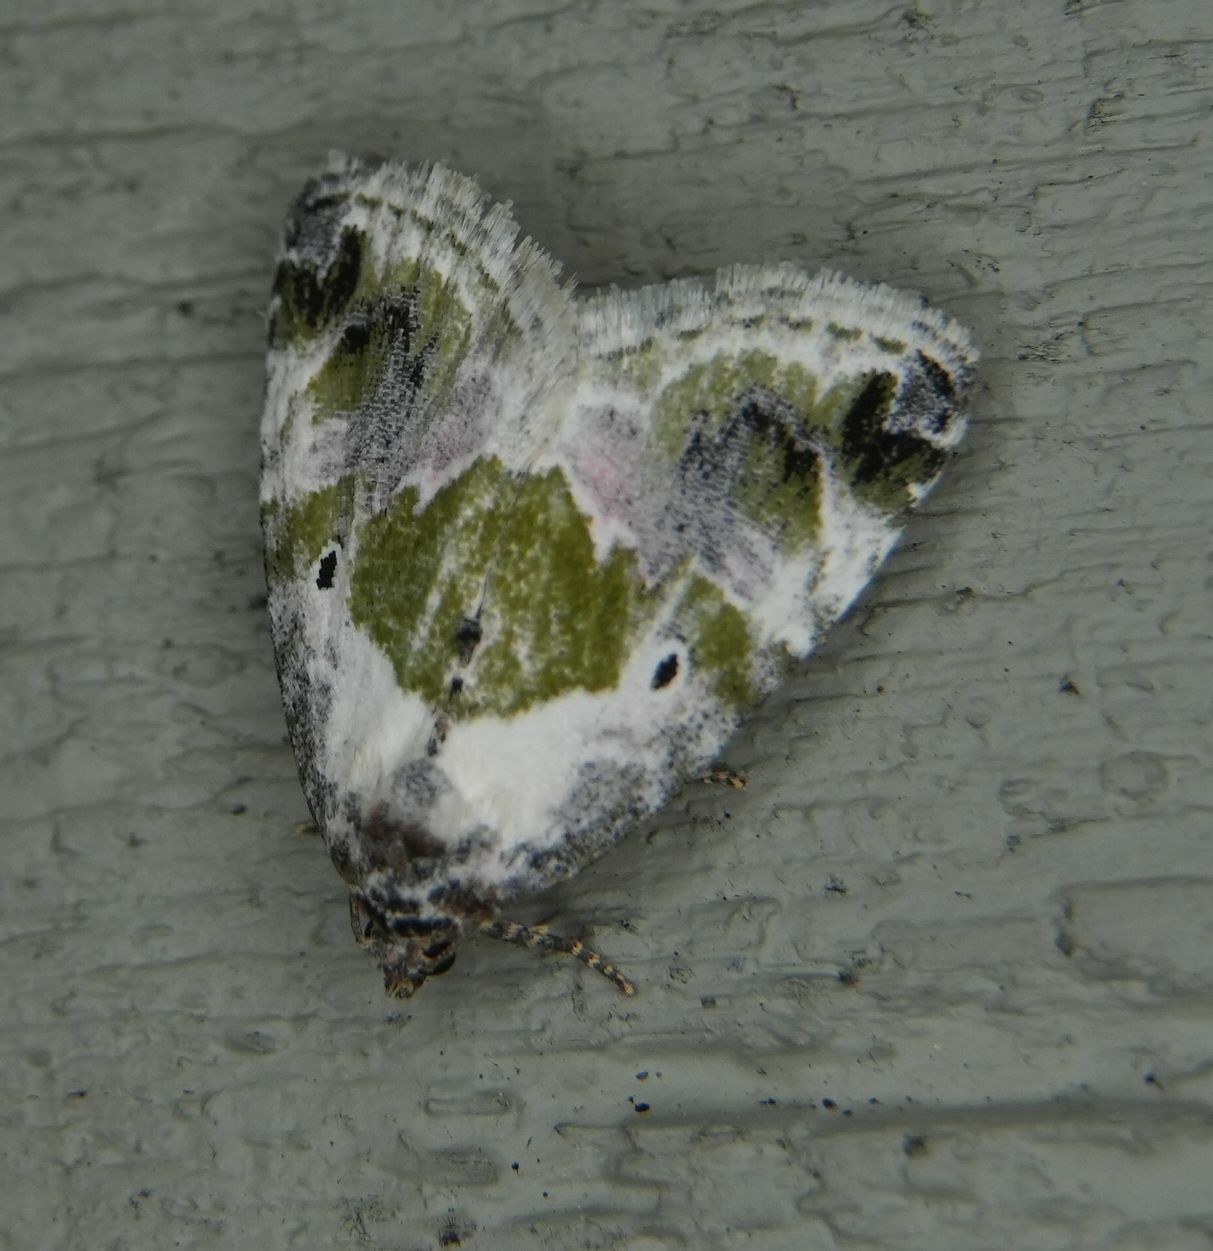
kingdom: Animalia
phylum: Arthropoda
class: Insecta
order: Lepidoptera
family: Noctuidae
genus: Maliattha
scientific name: Maliattha synochitis
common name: Black-dotted glyph
